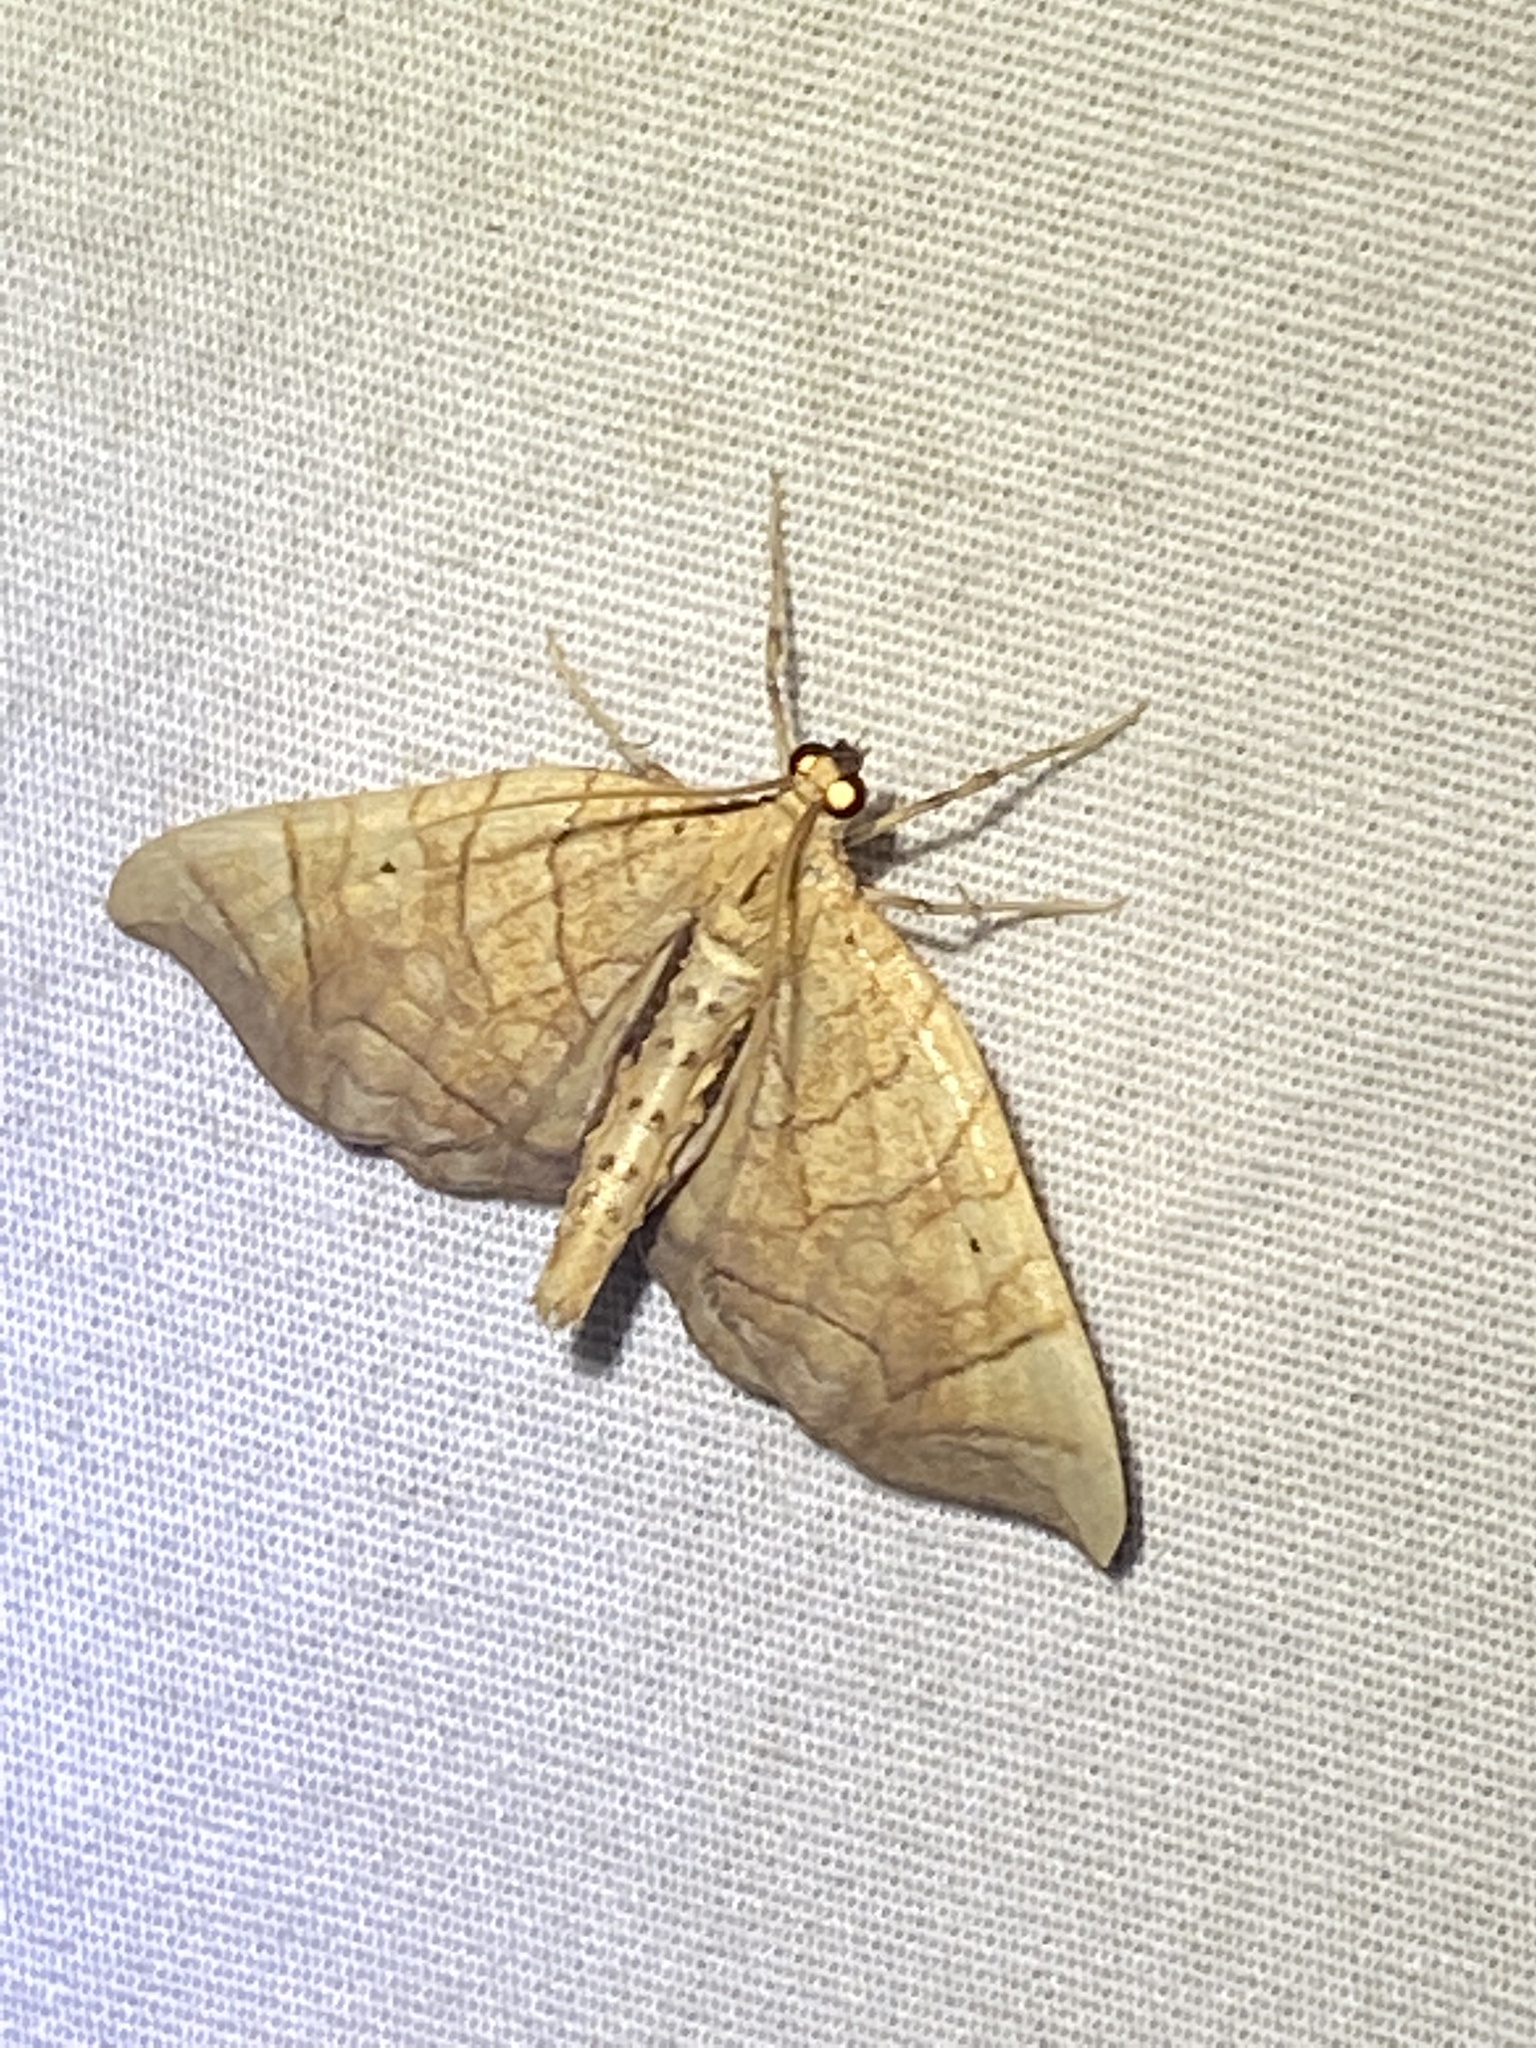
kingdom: Animalia
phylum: Arthropoda
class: Insecta
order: Lepidoptera
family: Geometridae
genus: Eulithis
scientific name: Eulithis
